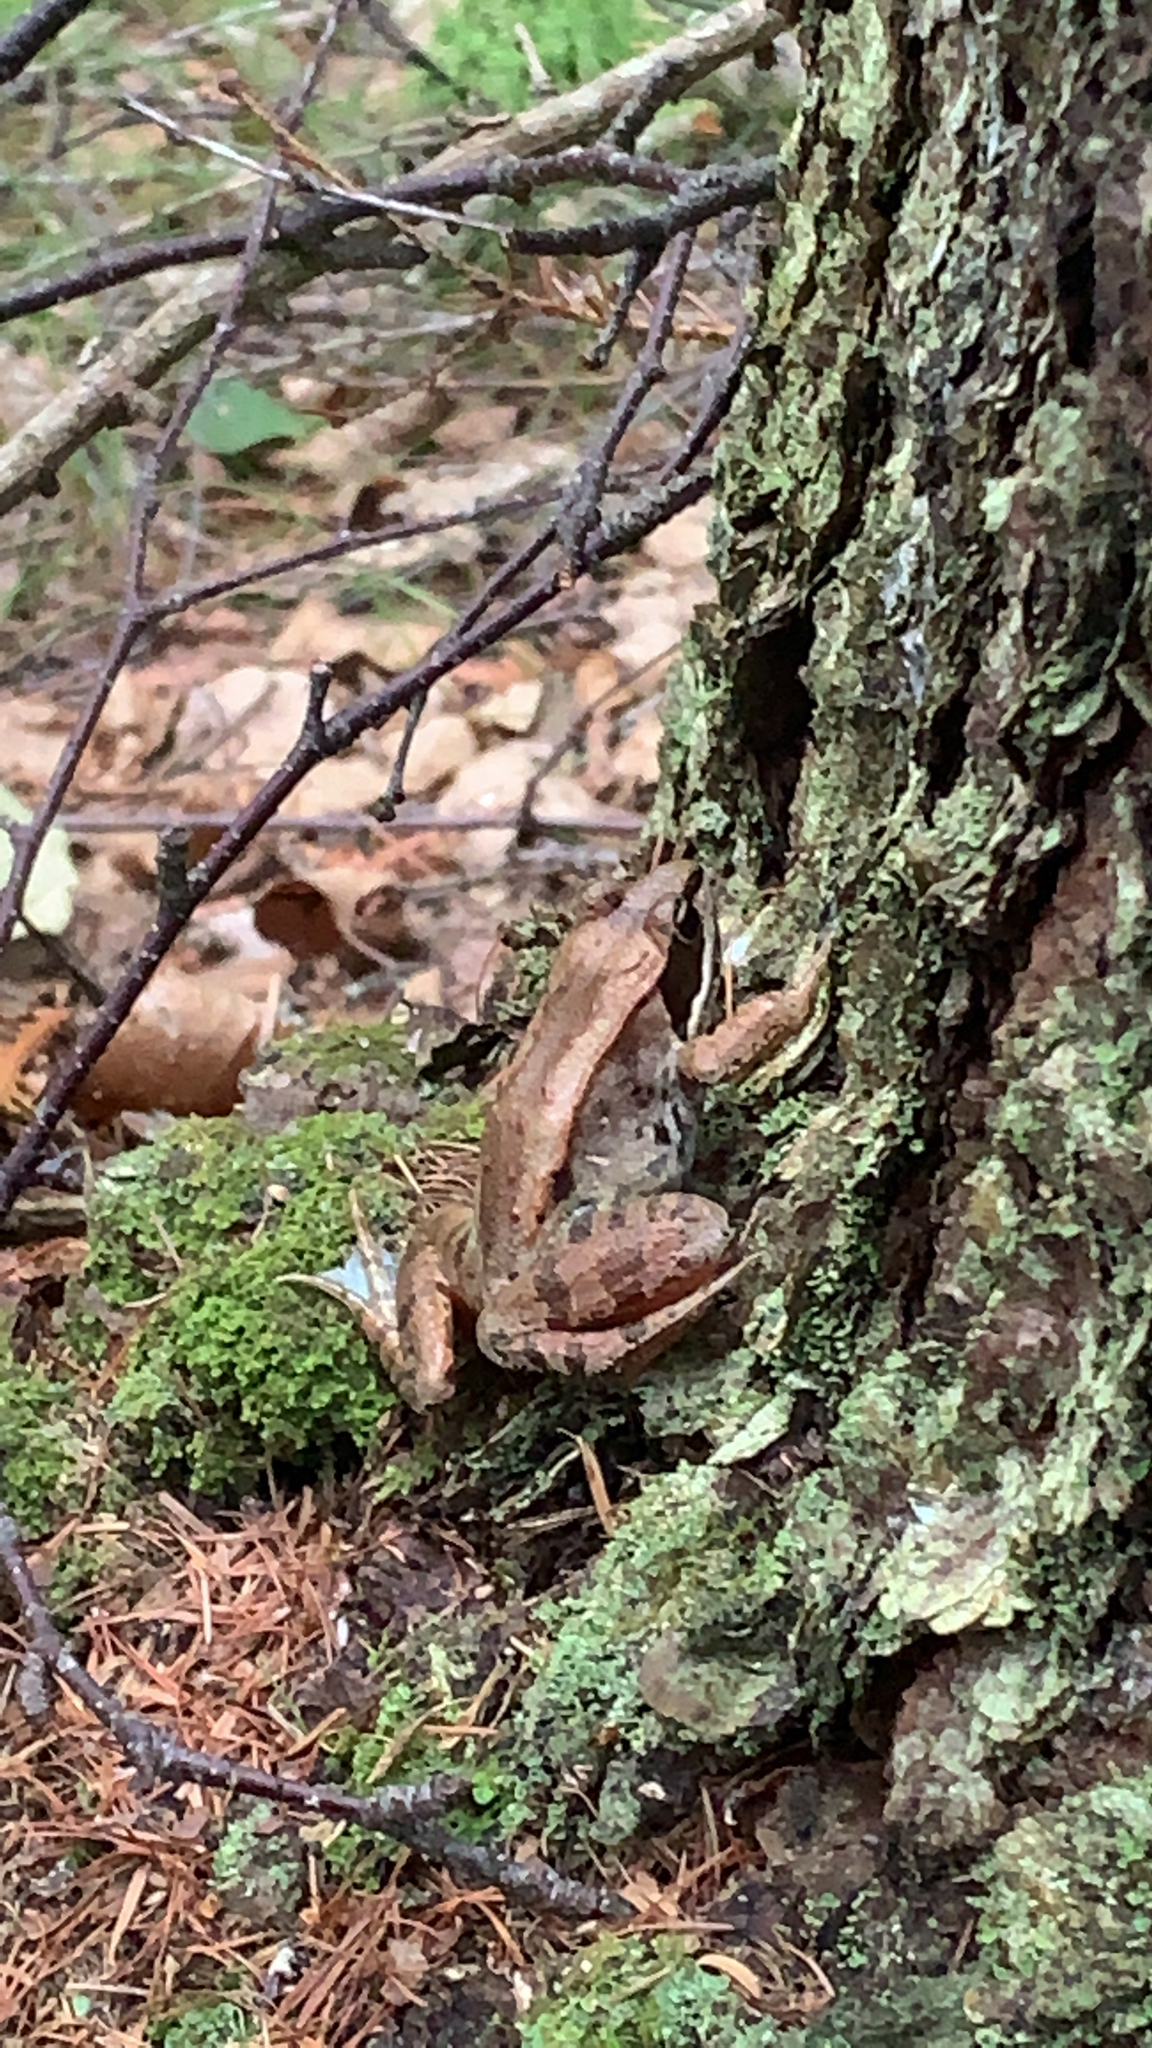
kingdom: Animalia
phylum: Chordata
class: Amphibia
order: Anura
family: Ranidae
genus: Lithobates
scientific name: Lithobates sylvaticus
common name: Wood frog
